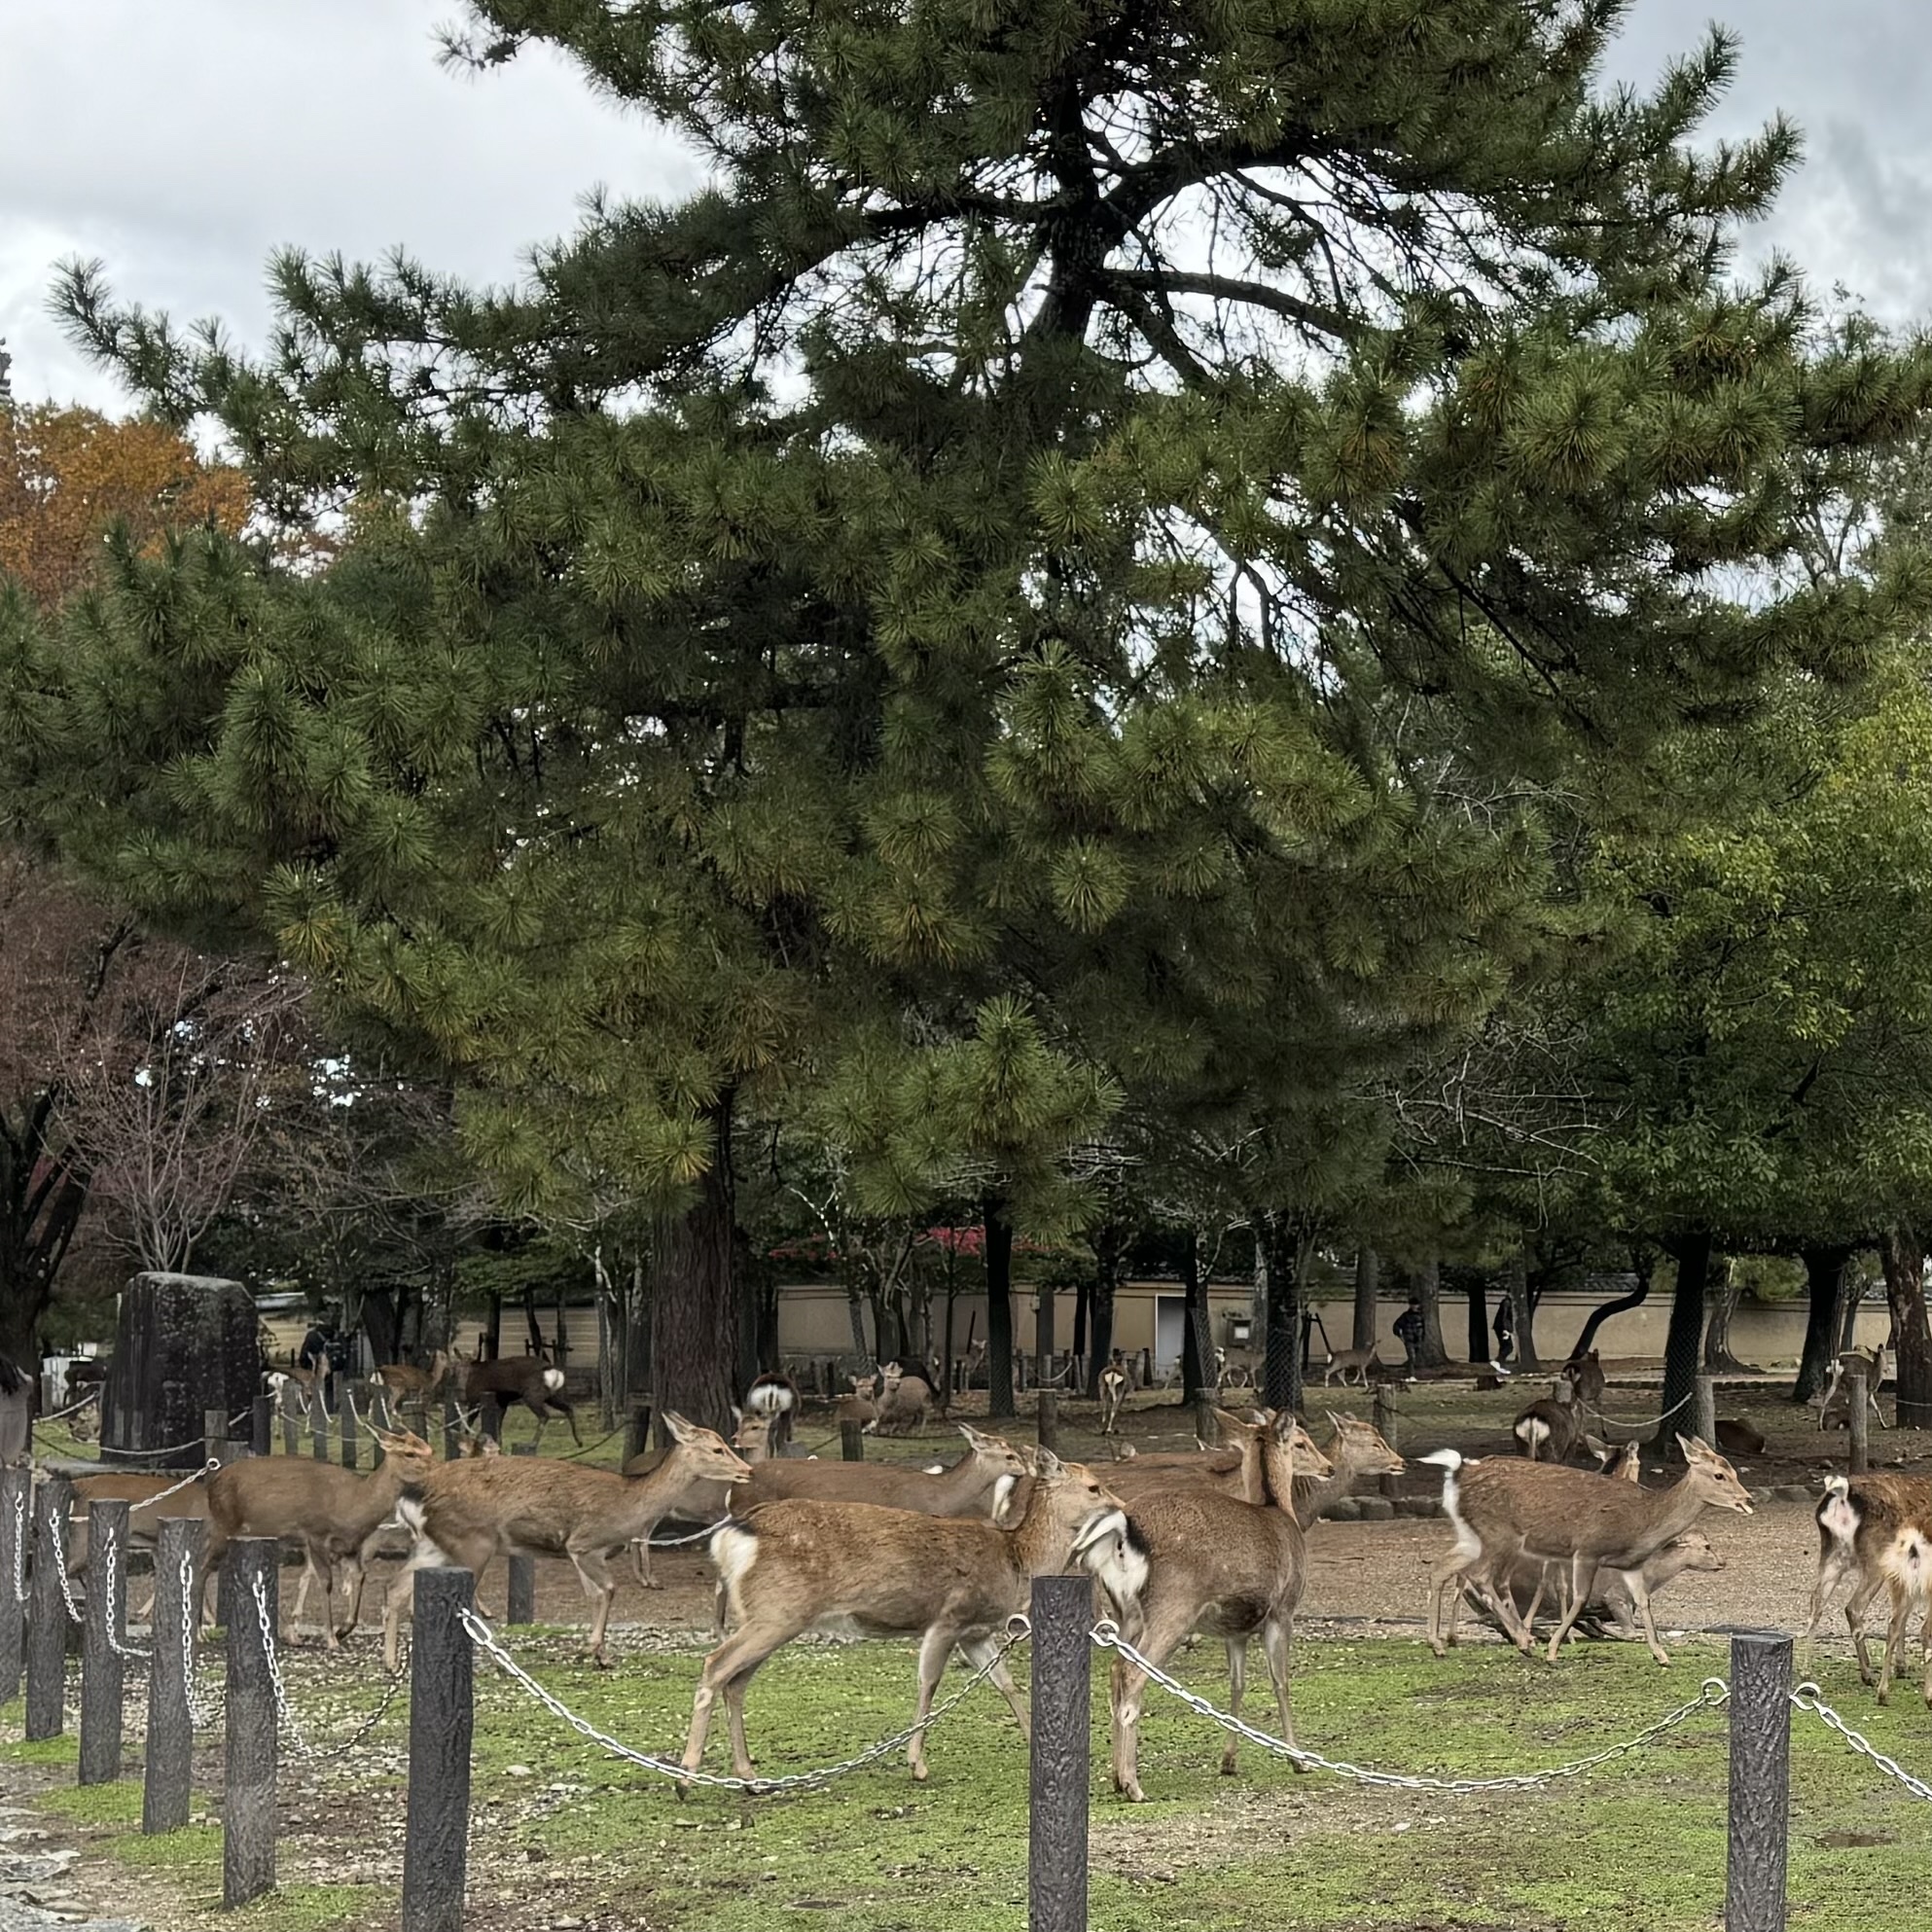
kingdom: Animalia
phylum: Chordata
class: Mammalia
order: Artiodactyla
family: Cervidae
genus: Cervus
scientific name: Cervus nippon
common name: Sika deer
